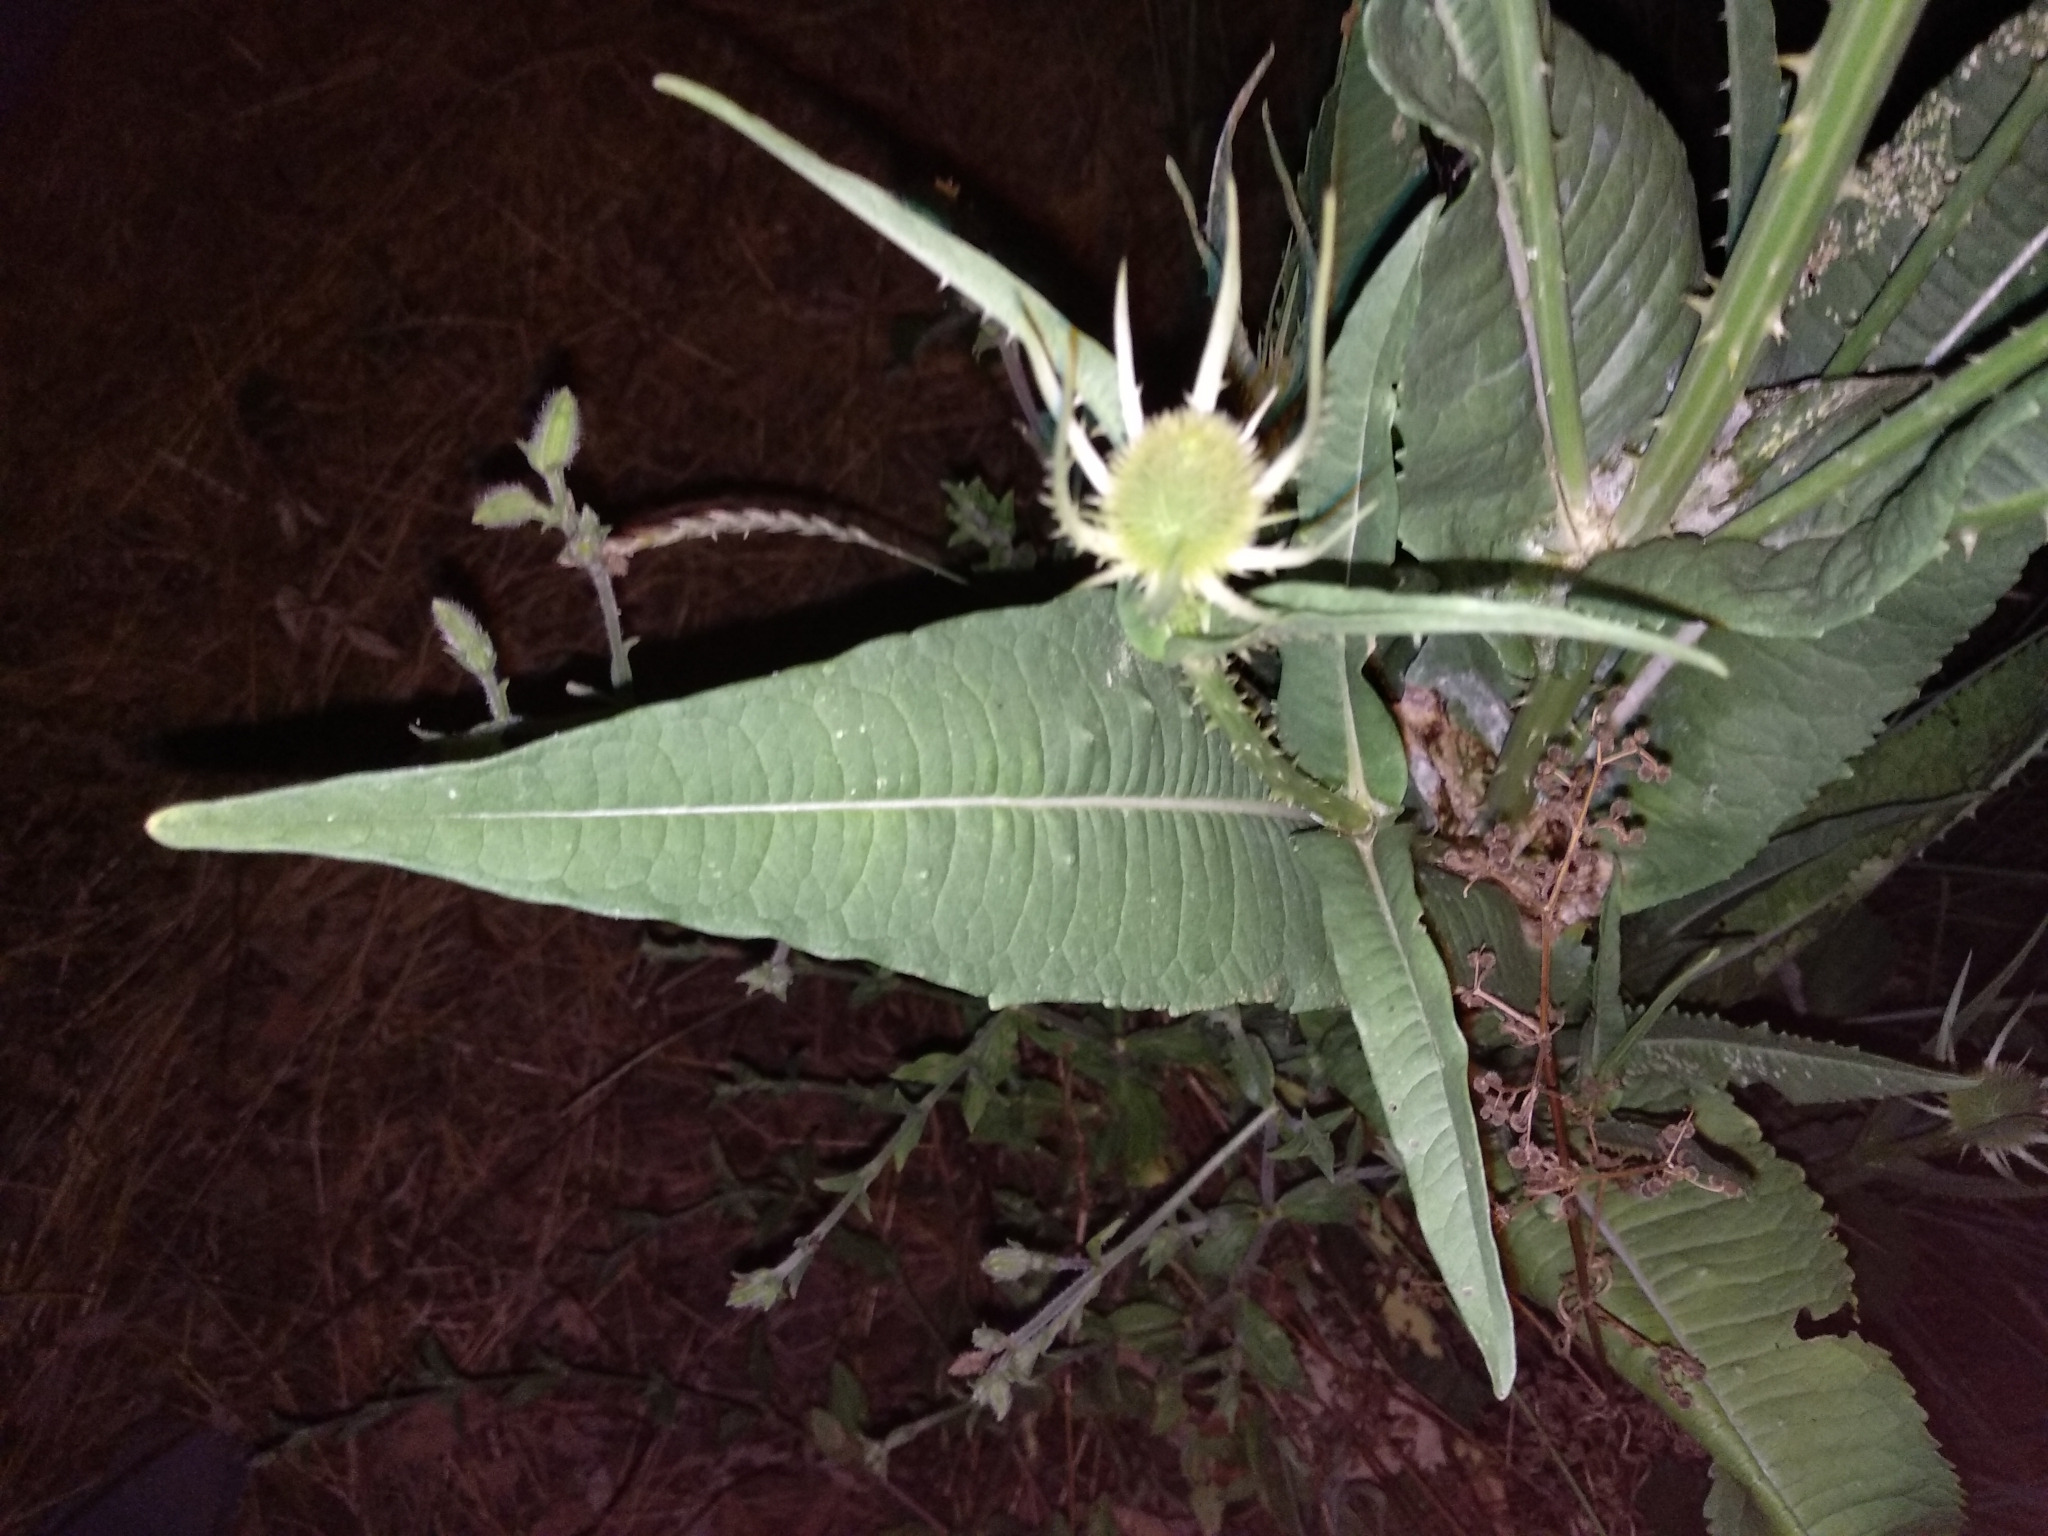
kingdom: Plantae
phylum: Tracheophyta
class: Magnoliopsida
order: Dipsacales
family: Caprifoliaceae
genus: Dipsacus
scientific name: Dipsacus fullonum
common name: Teasel
